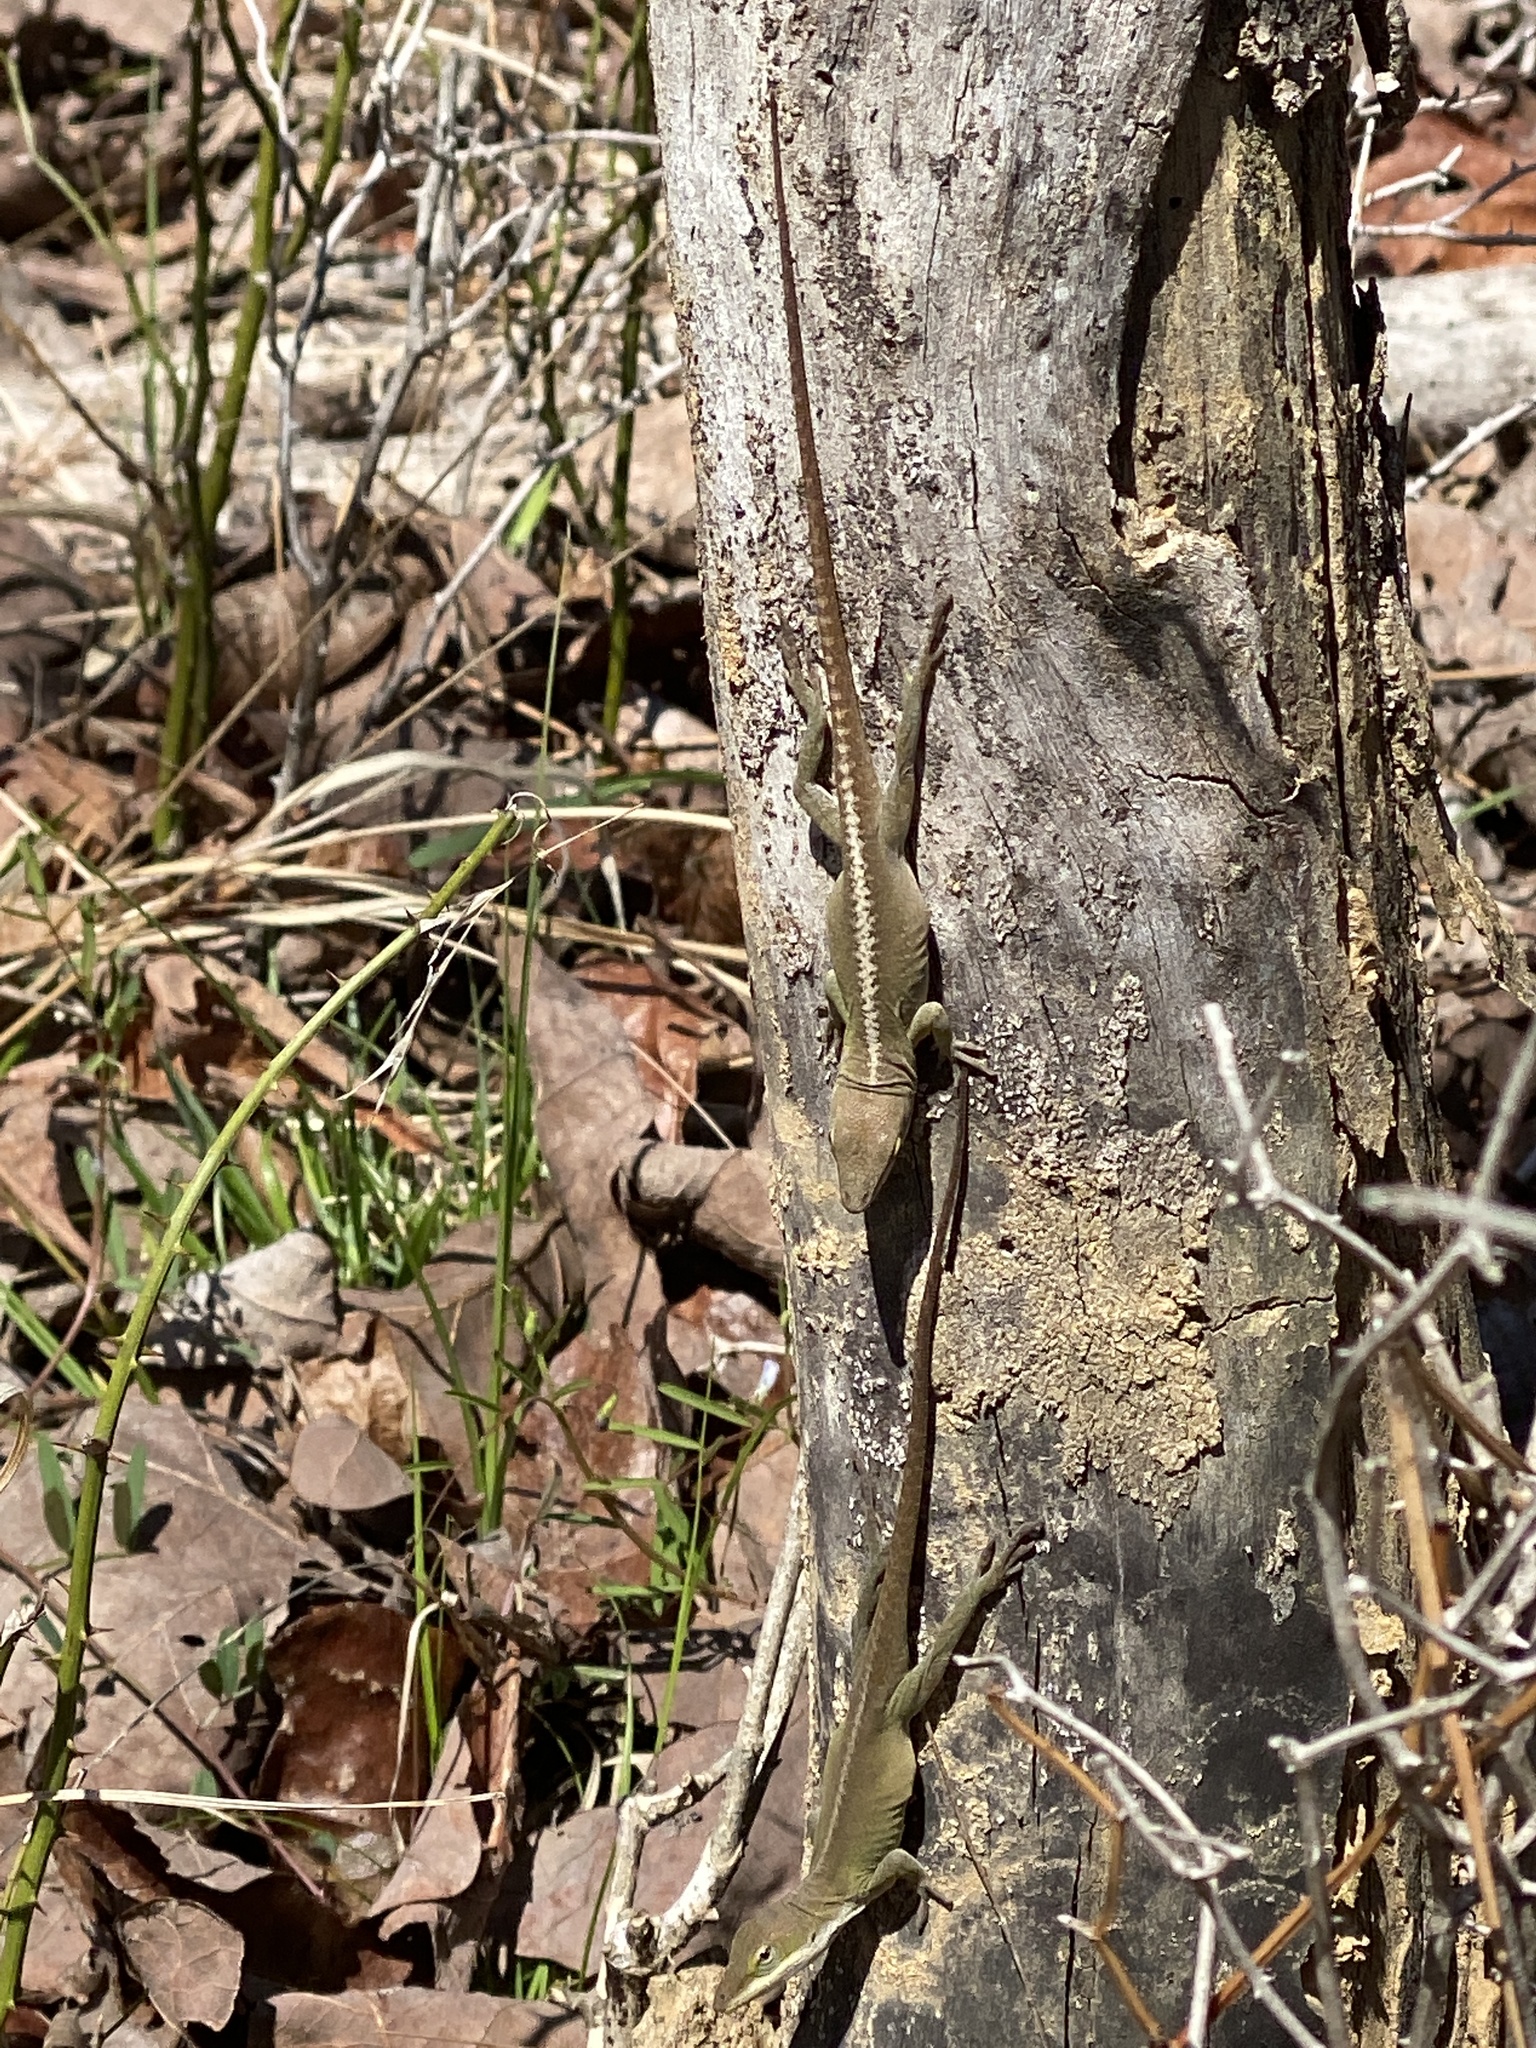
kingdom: Animalia
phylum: Chordata
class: Squamata
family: Dactyloidae
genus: Anolis
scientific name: Anolis carolinensis
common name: Green anole
